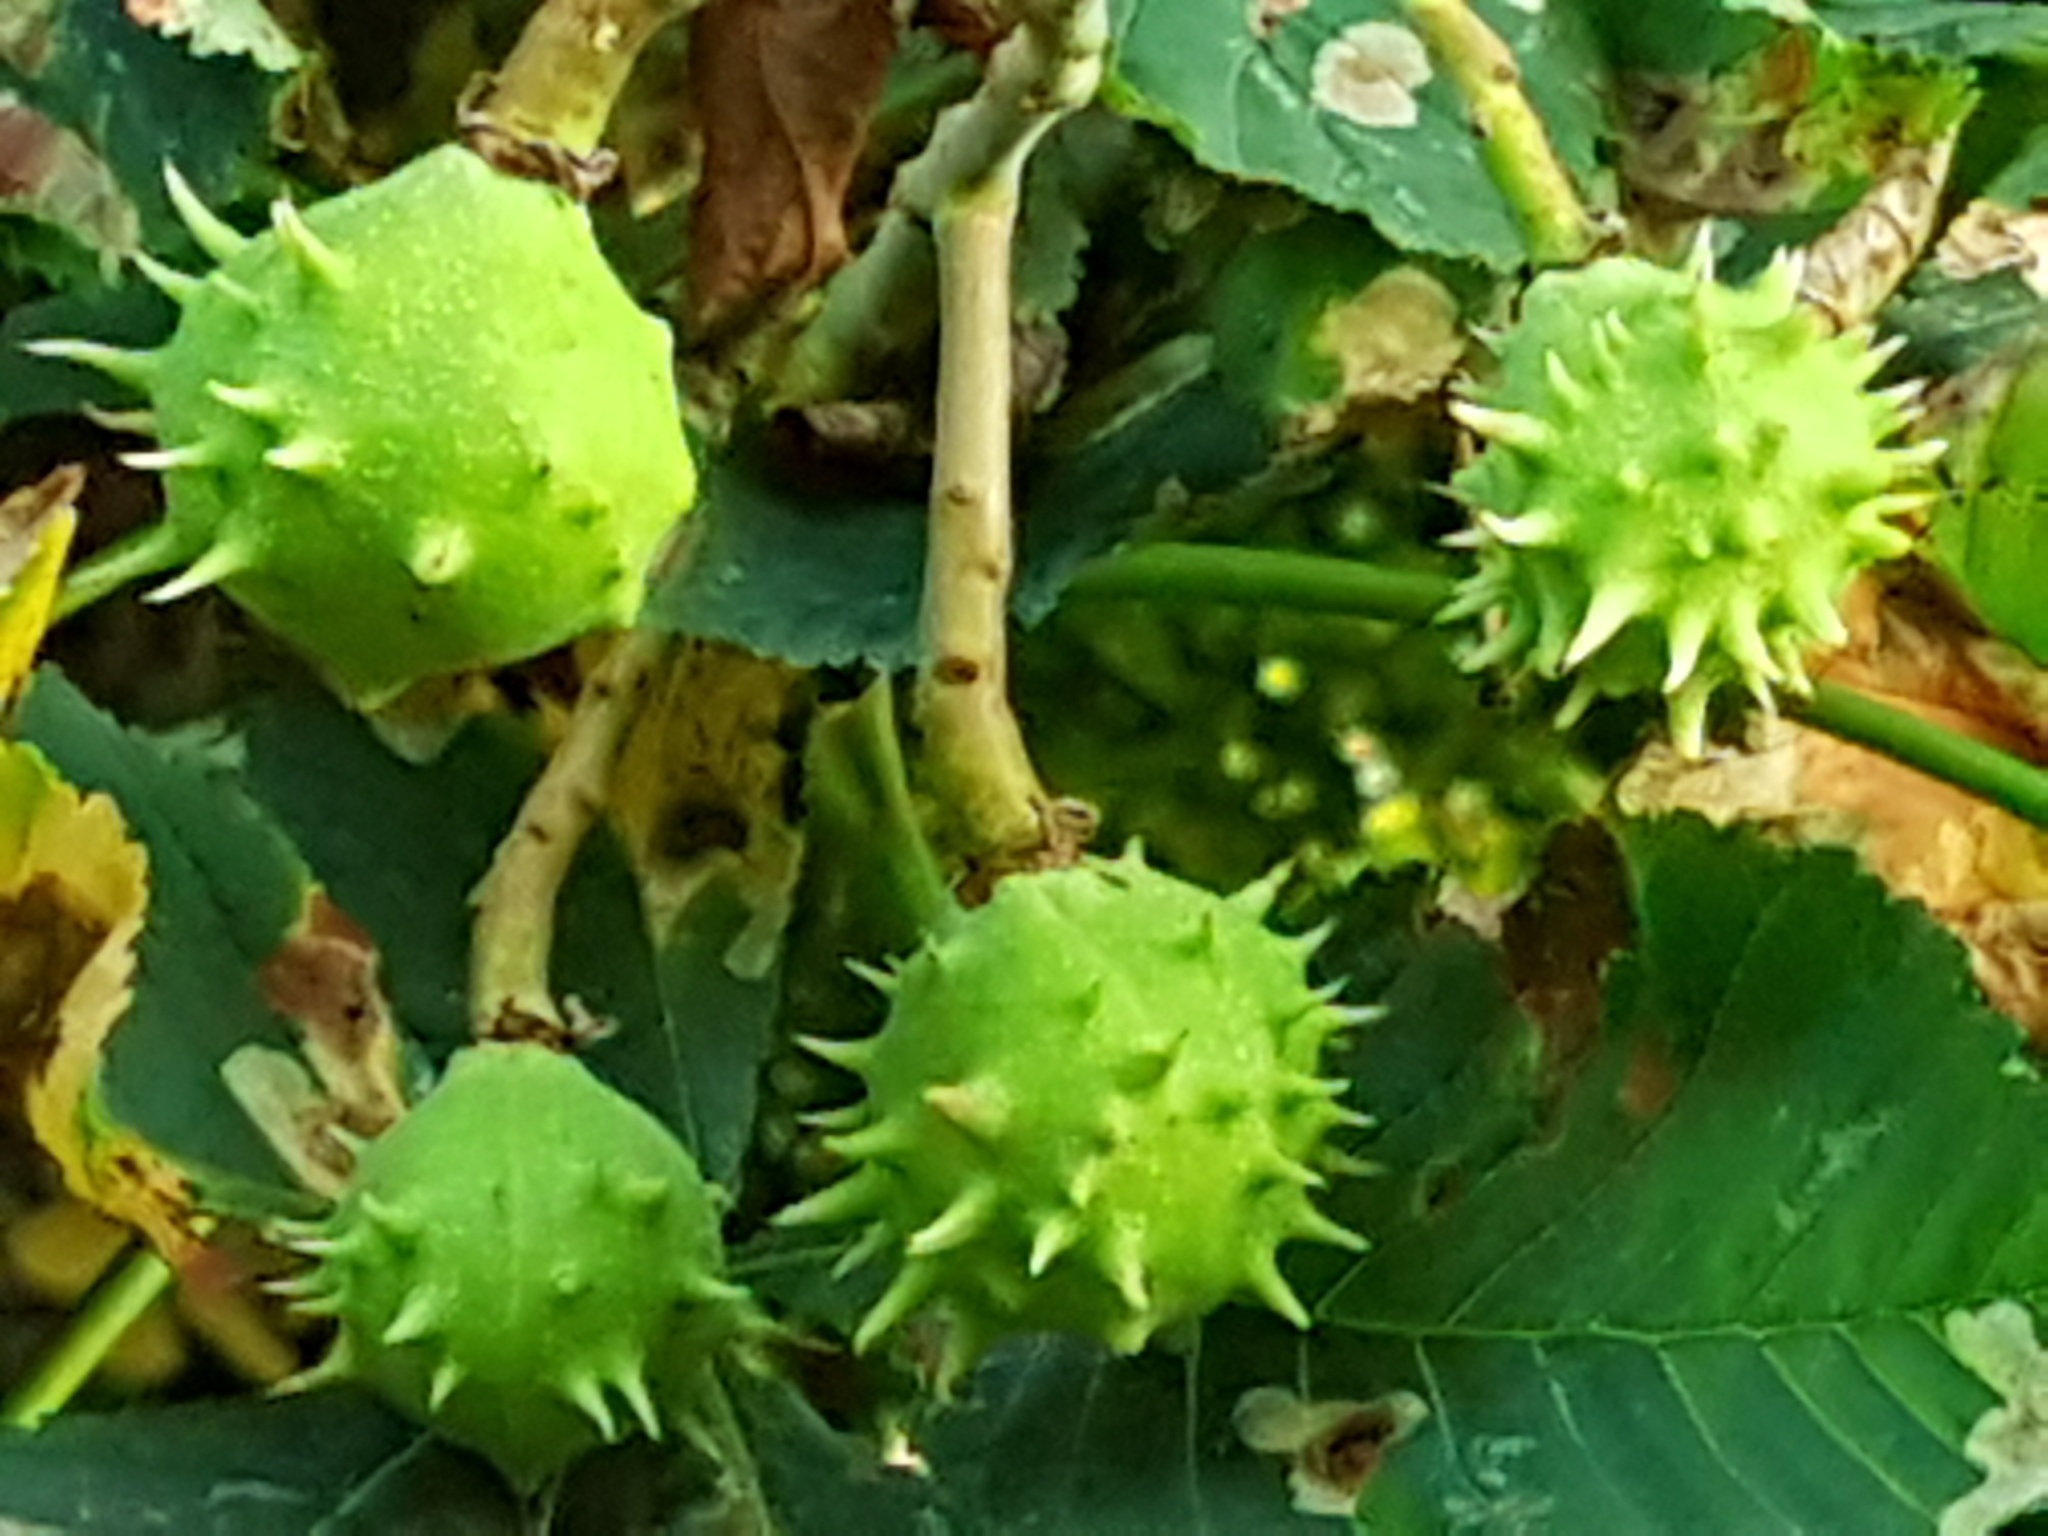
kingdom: Plantae
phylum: Tracheophyta
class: Magnoliopsida
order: Sapindales
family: Sapindaceae
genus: Aesculus
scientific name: Aesculus hippocastanum
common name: Horse-chestnut
